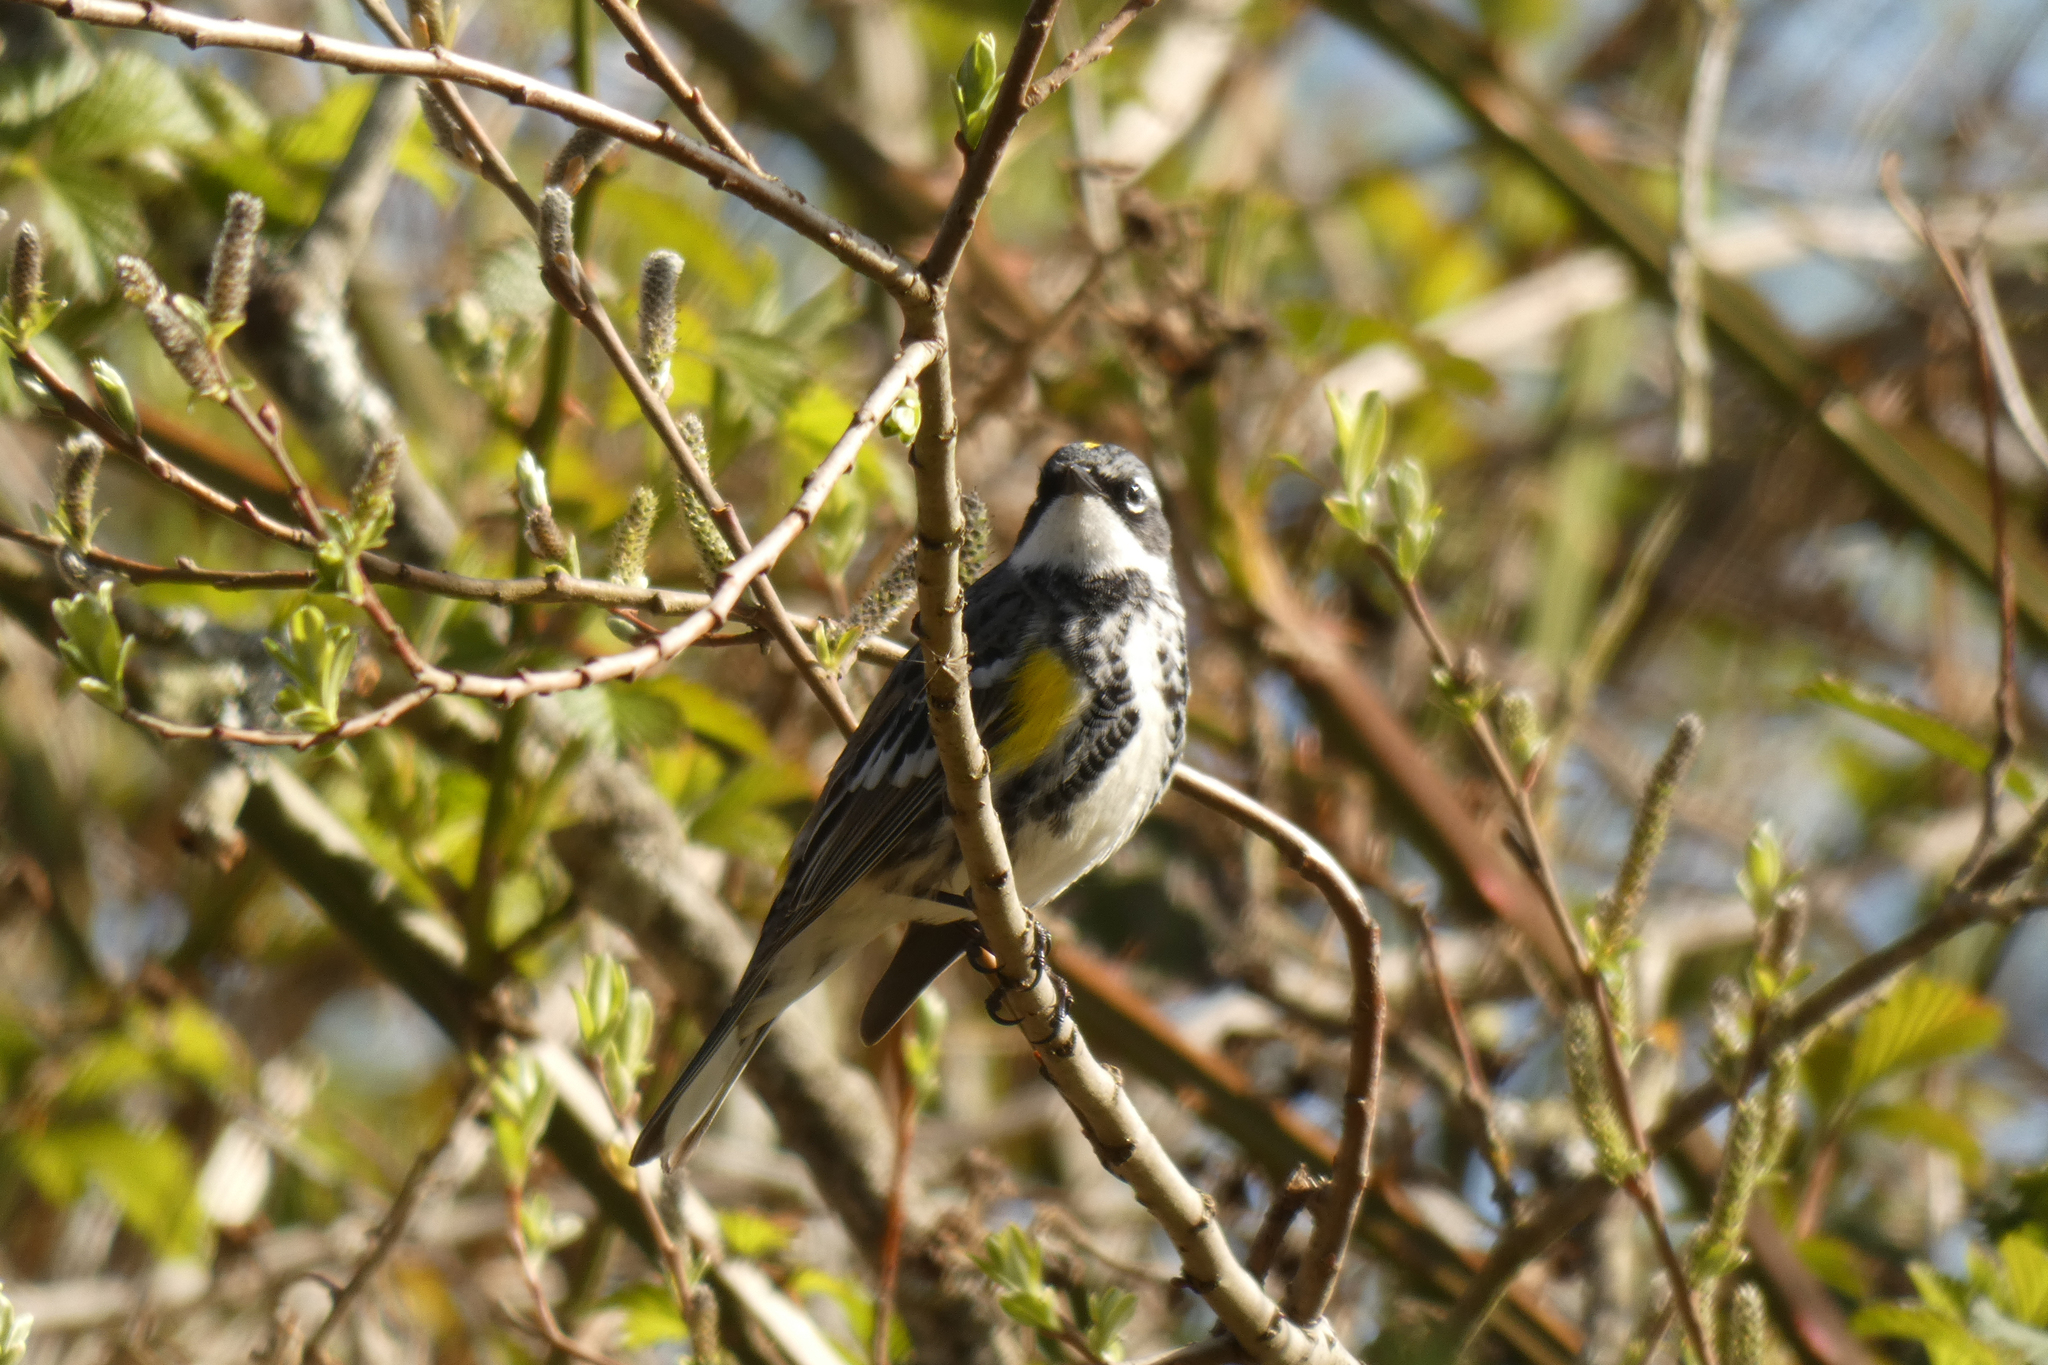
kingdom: Animalia
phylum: Chordata
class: Aves
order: Passeriformes
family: Parulidae
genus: Setophaga
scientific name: Setophaga coronata
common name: Myrtle warbler
